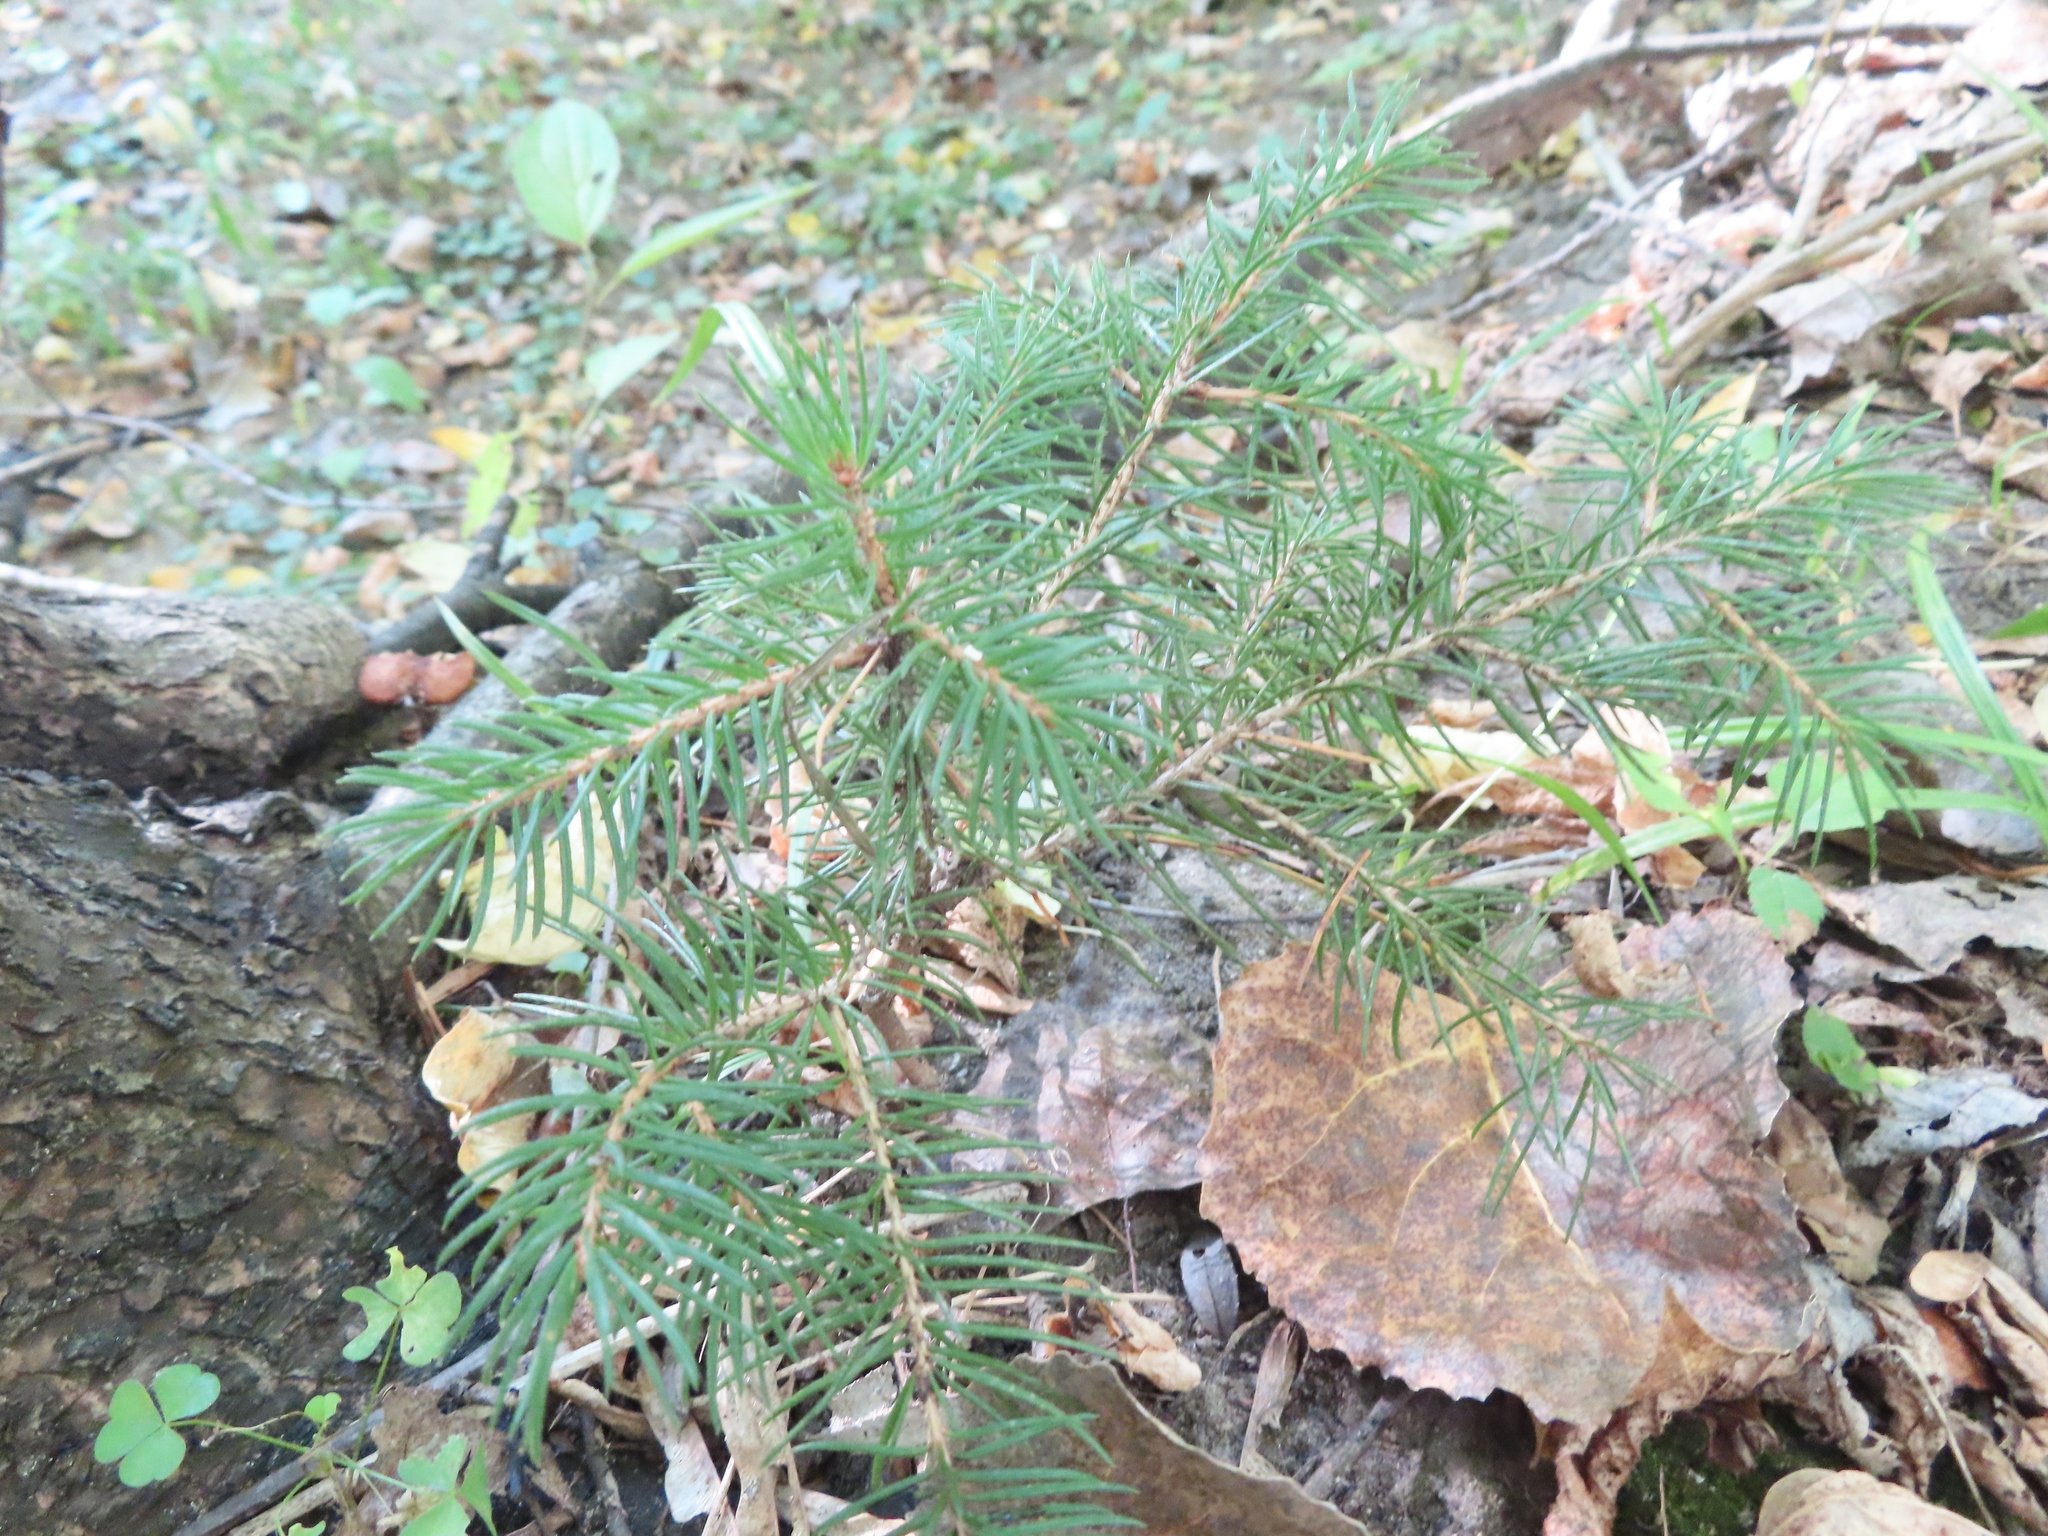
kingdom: Plantae
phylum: Tracheophyta
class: Pinopsida
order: Pinales
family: Pinaceae
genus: Picea
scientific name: Picea glauca
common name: White spruce
